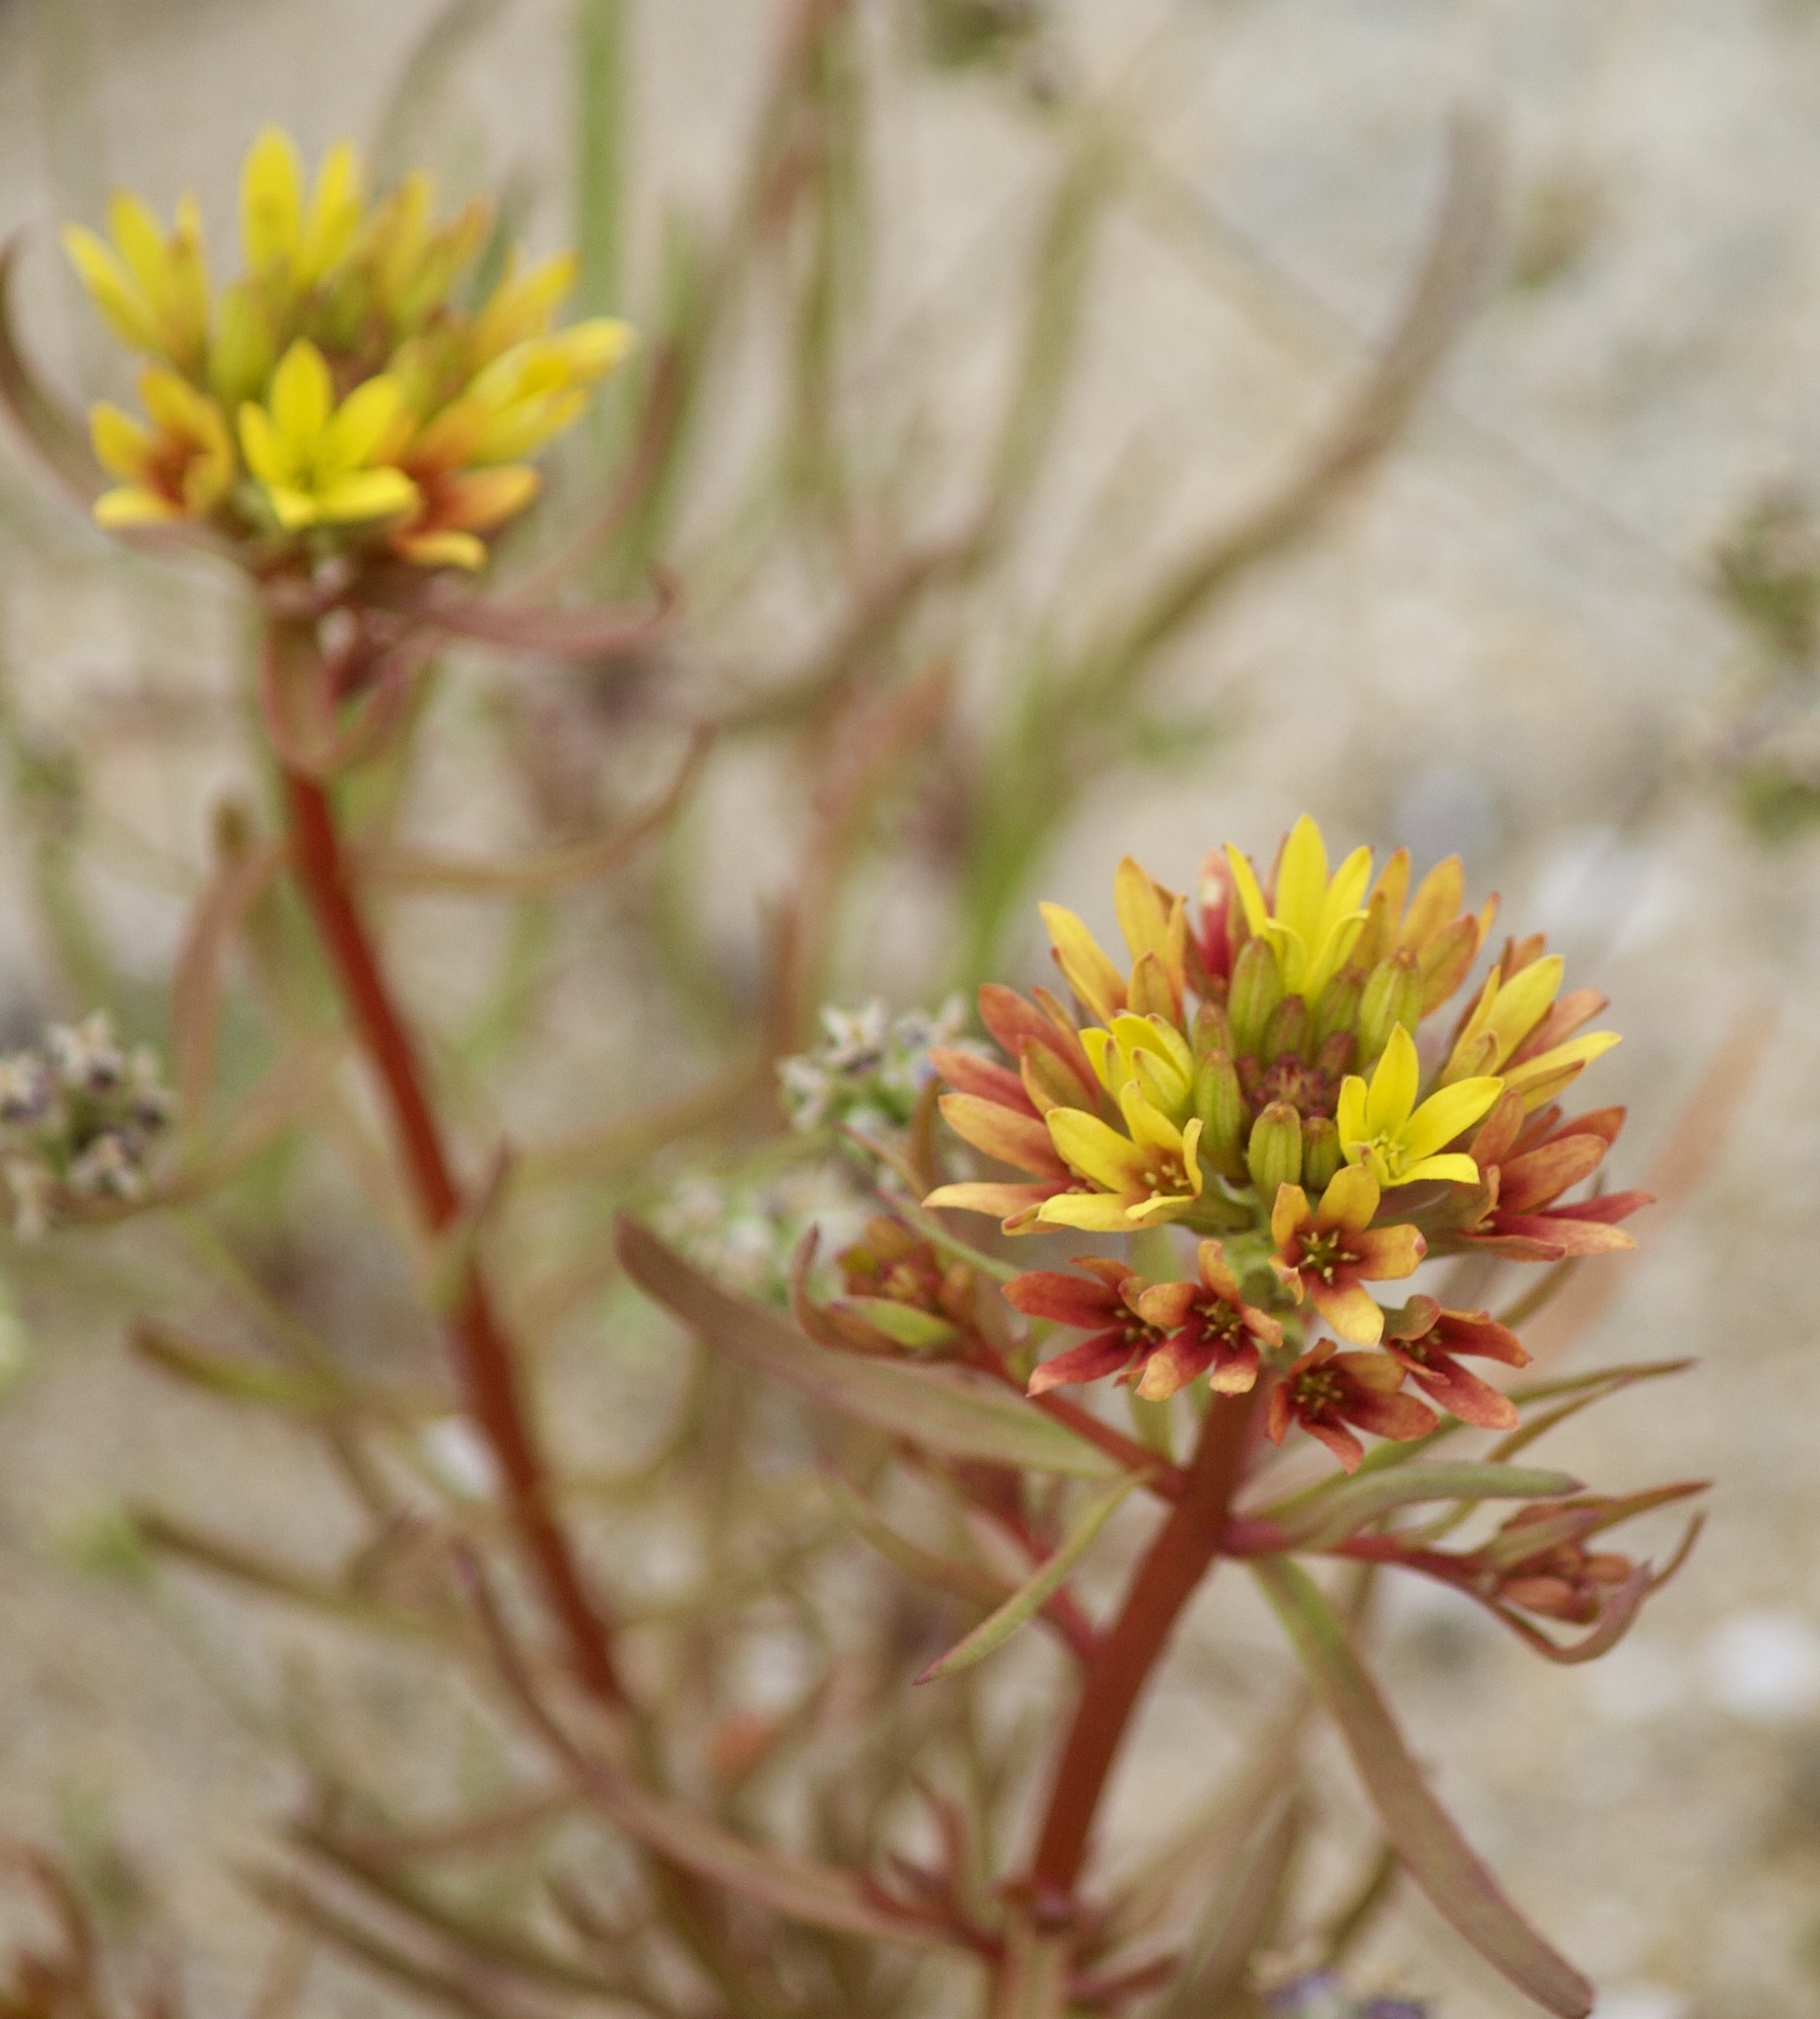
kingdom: Plantae
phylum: Tracheophyta
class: Magnoliopsida
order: Santalales
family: Schoepfiaceae
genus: Quinchamalium
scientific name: Quinchamalium chilense
